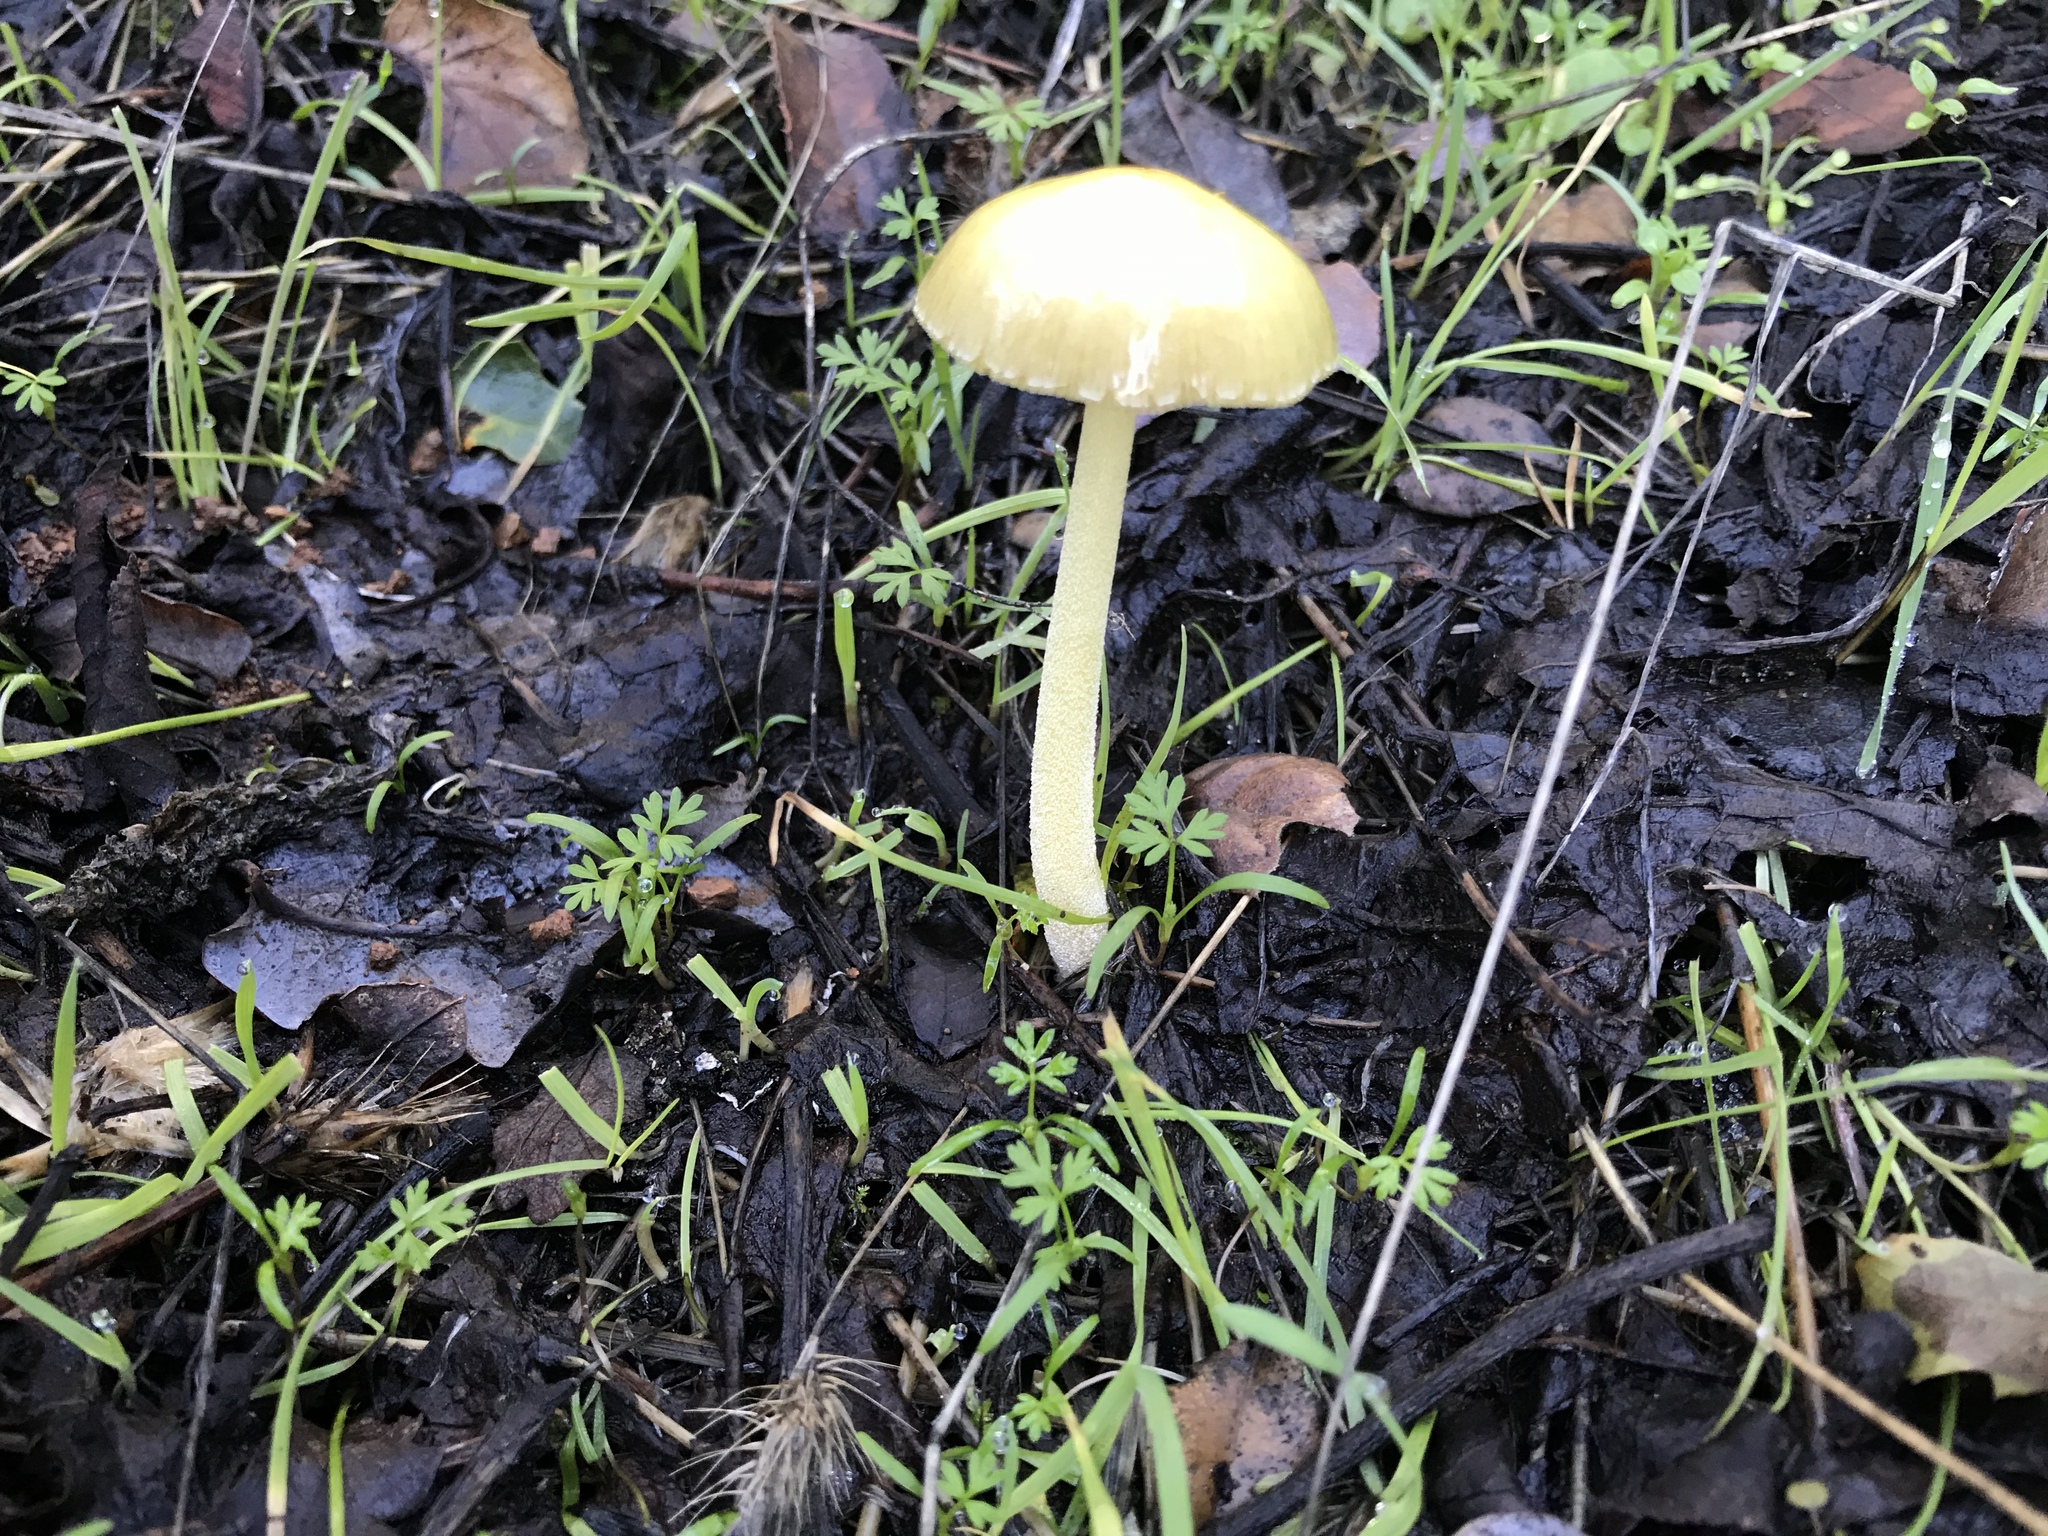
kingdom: Fungi
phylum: Basidiomycota
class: Agaricomycetes
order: Agaricales
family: Bolbitiaceae
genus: Bolbitius
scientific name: Bolbitius titubans
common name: Yellow fieldcap
